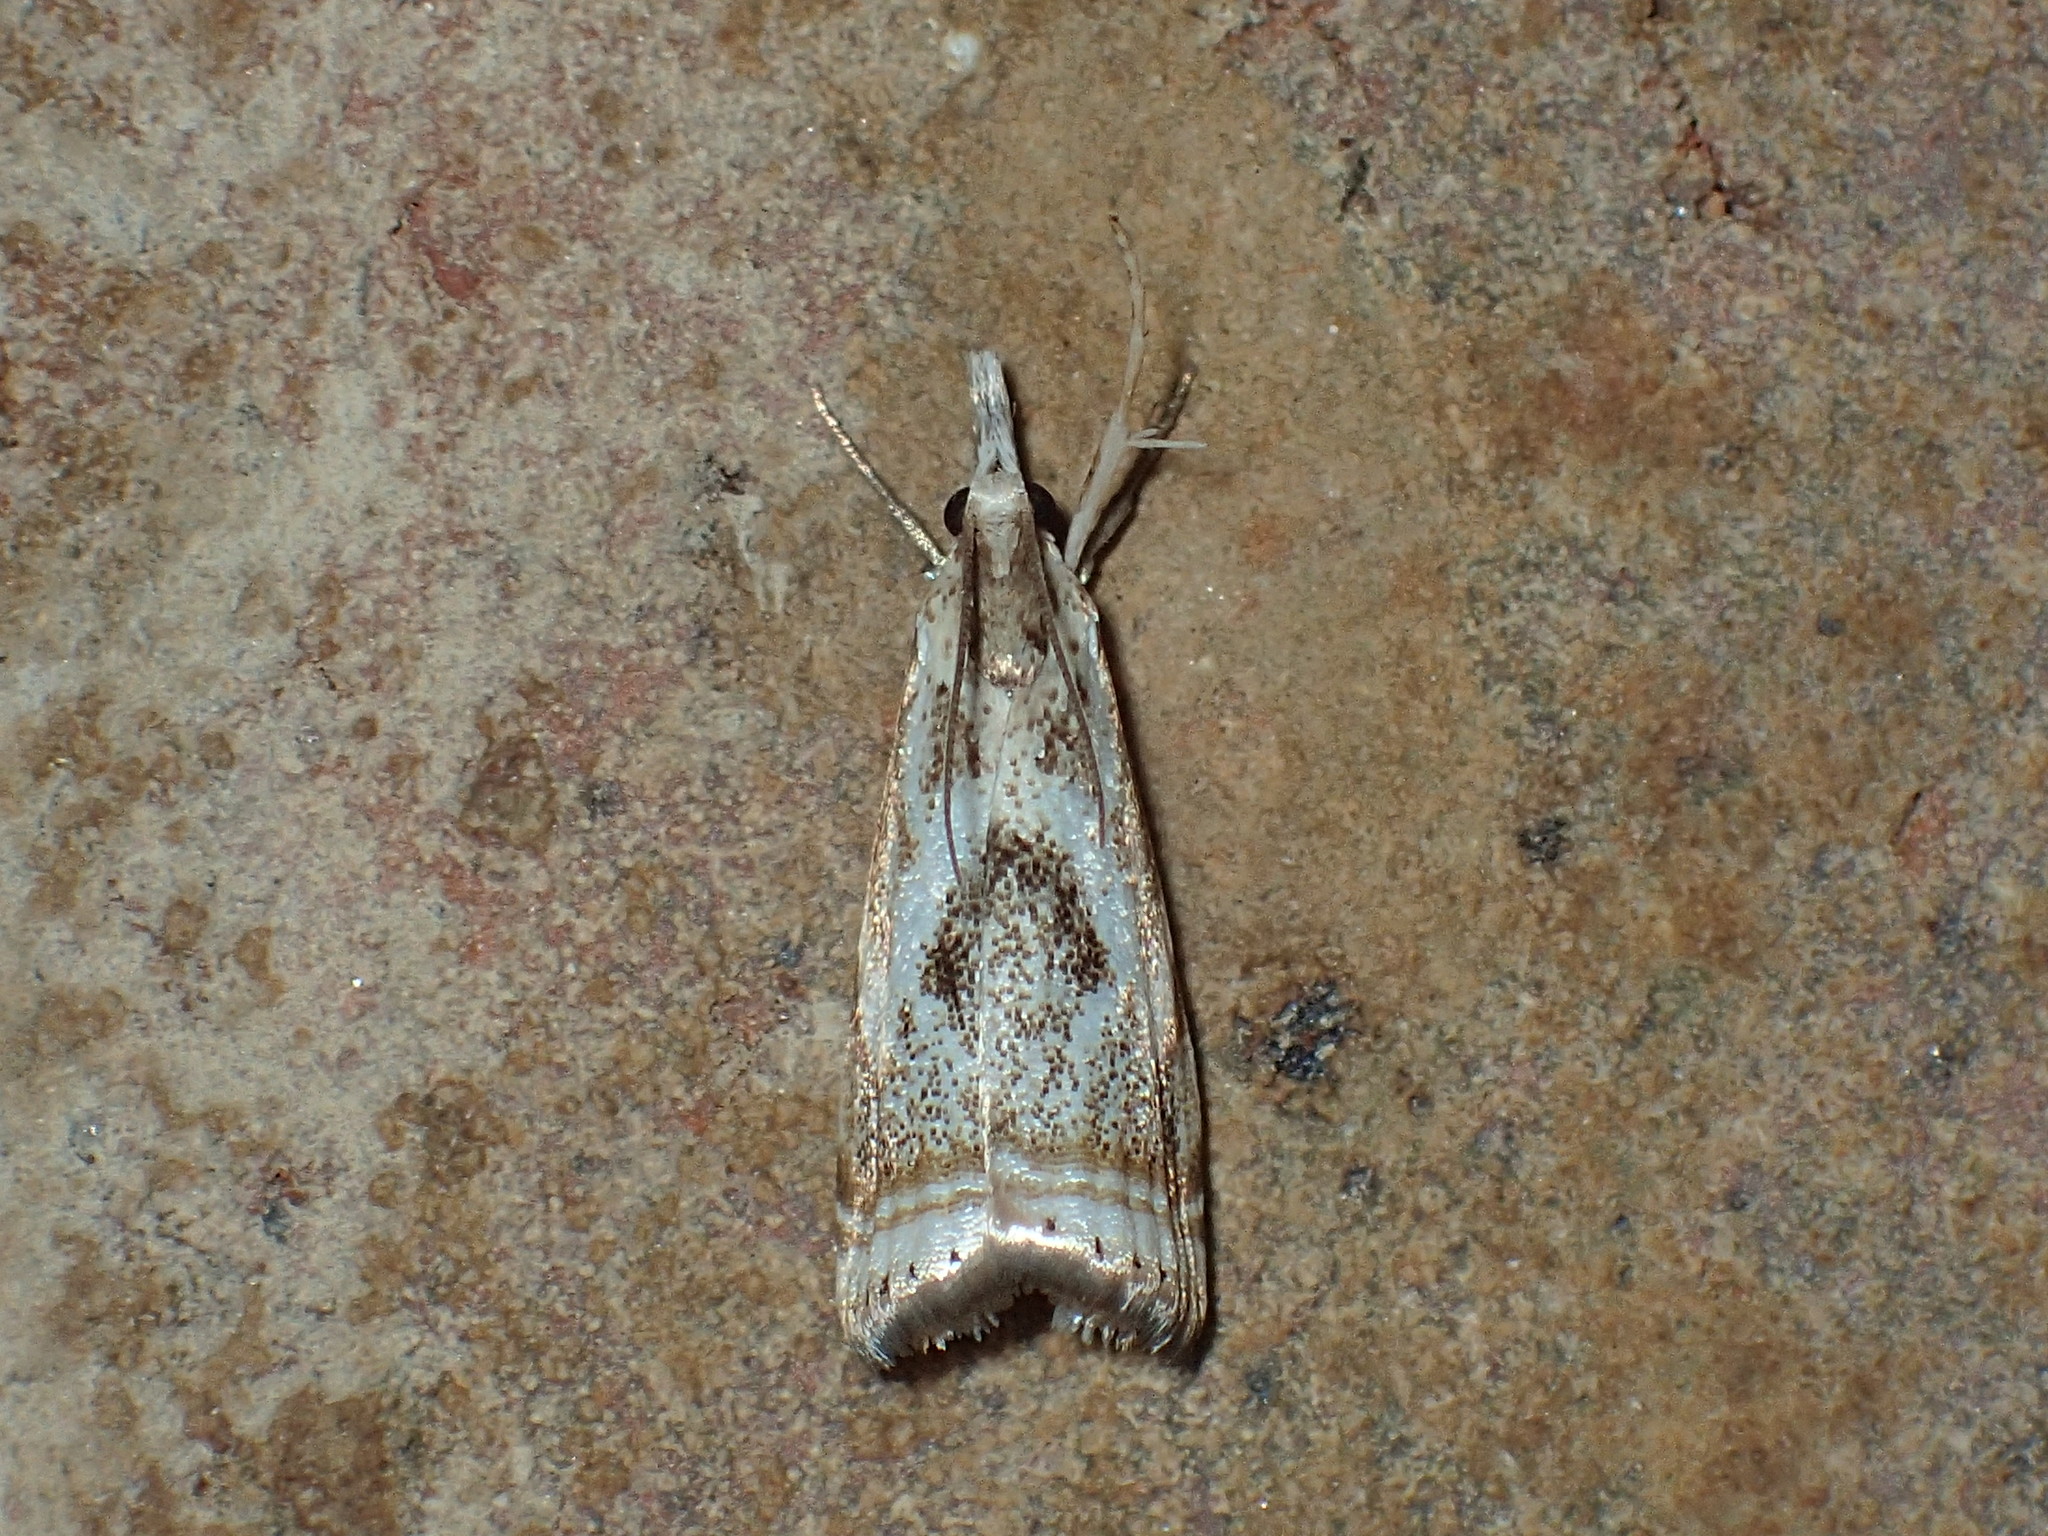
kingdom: Animalia
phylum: Arthropoda
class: Insecta
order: Lepidoptera
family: Crambidae
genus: Microcrambus
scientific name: Microcrambus elegans
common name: Elegant grass-veneer
